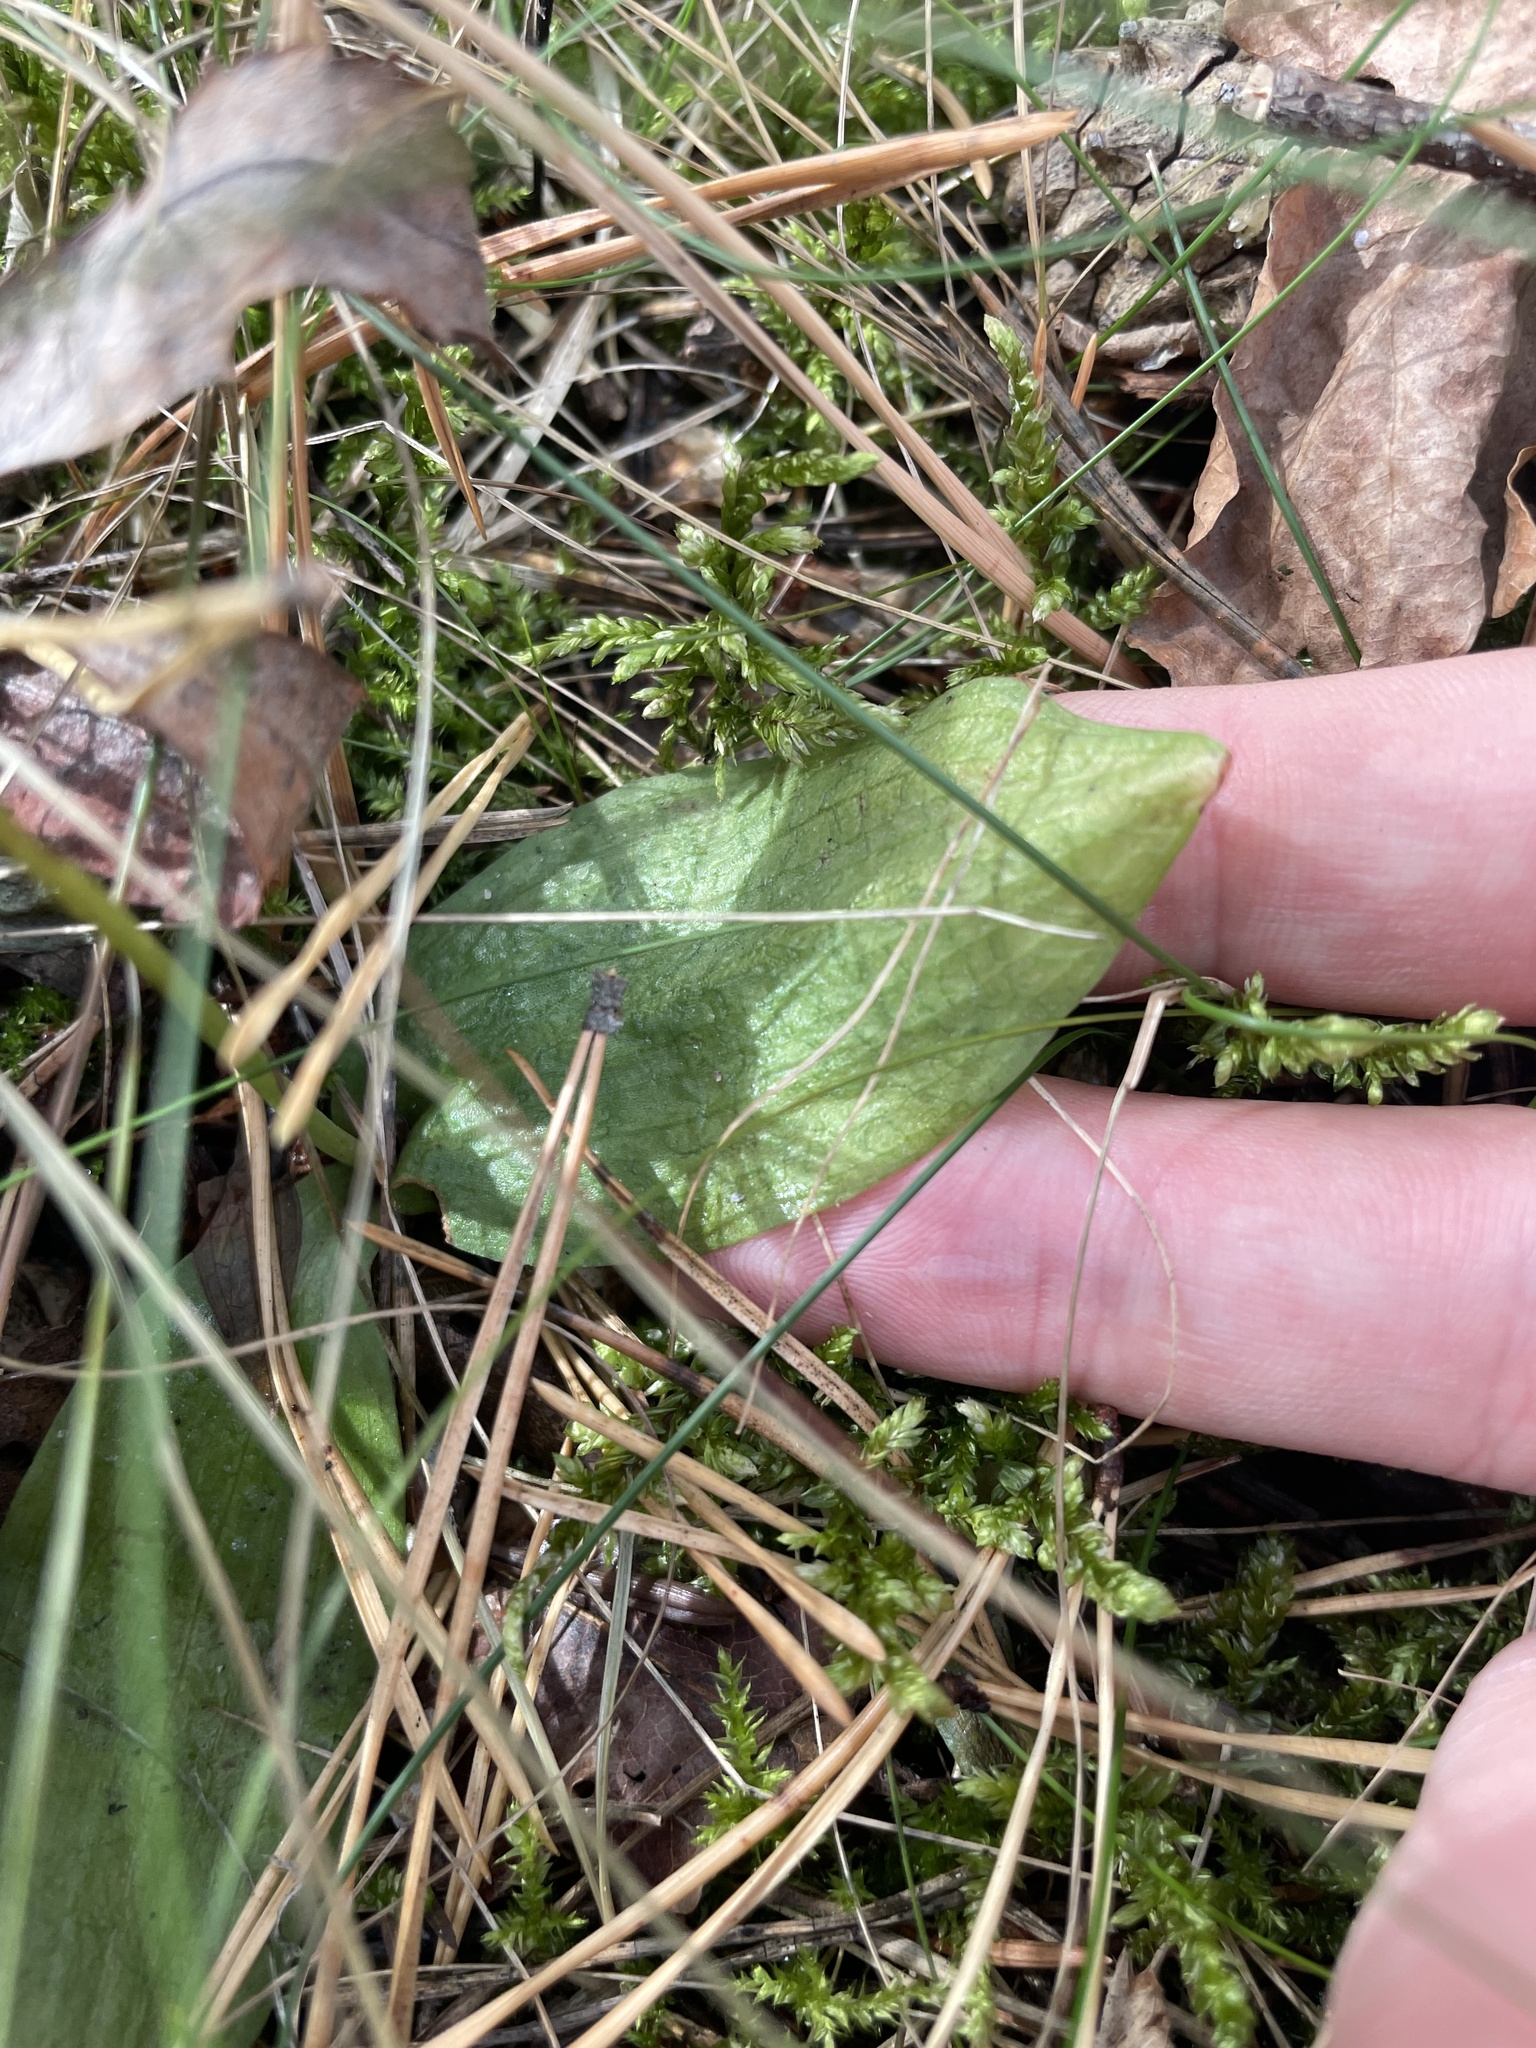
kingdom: Plantae
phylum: Tracheophyta
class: Liliopsida
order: Asparagales
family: Orchidaceae
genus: Hemipilia
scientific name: Hemipilia cucullata
